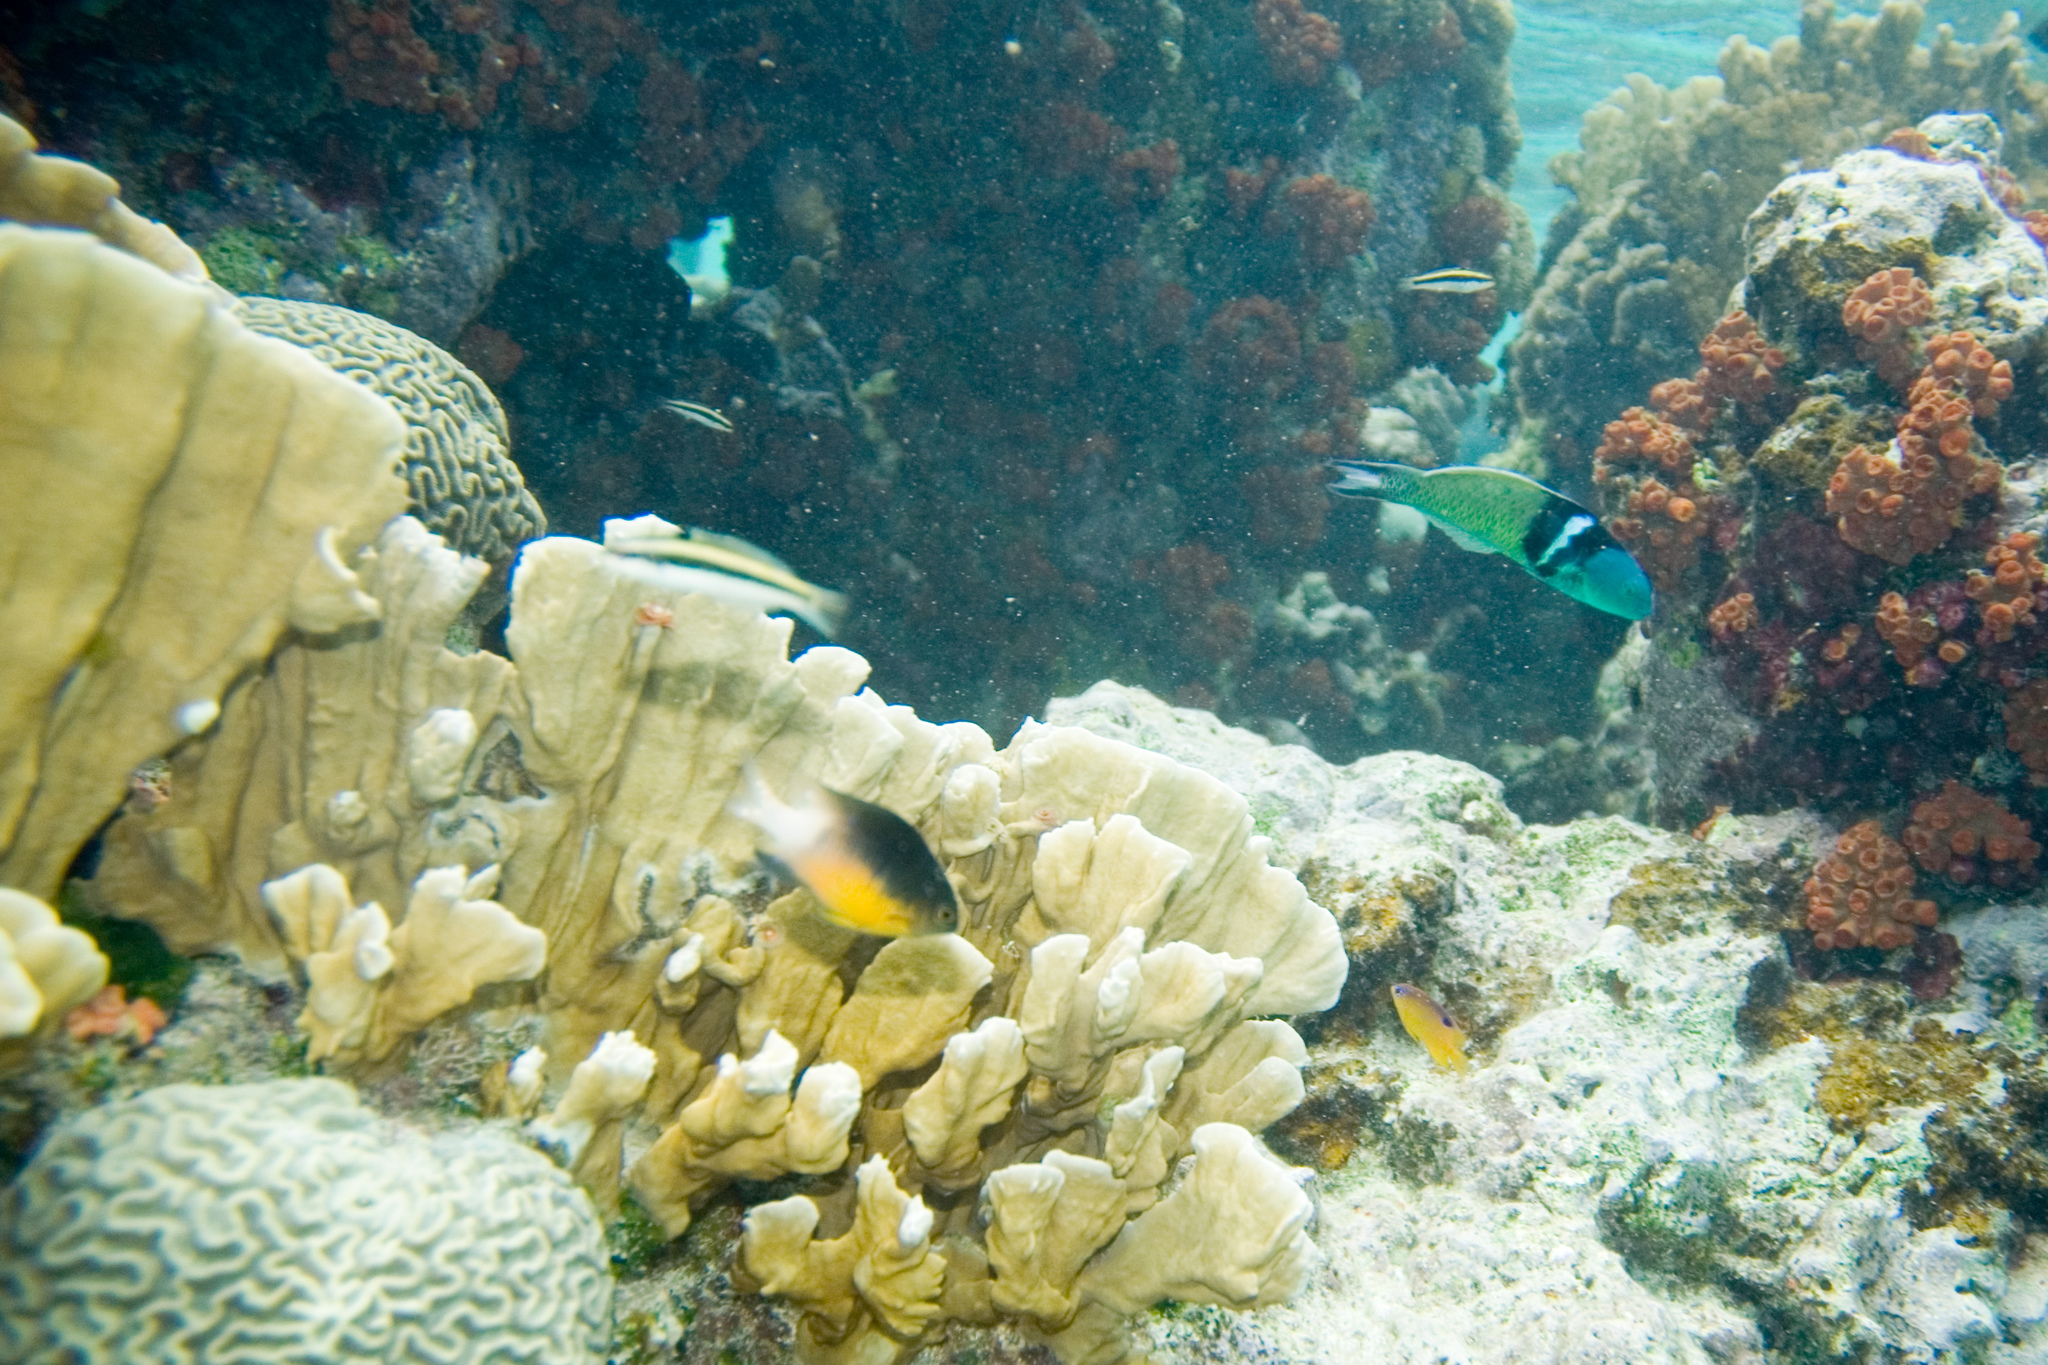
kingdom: Animalia
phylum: Chordata
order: Perciformes
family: Pomacentridae
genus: Stegastes
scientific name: Stegastes partitus
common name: Bicolor damselfish
